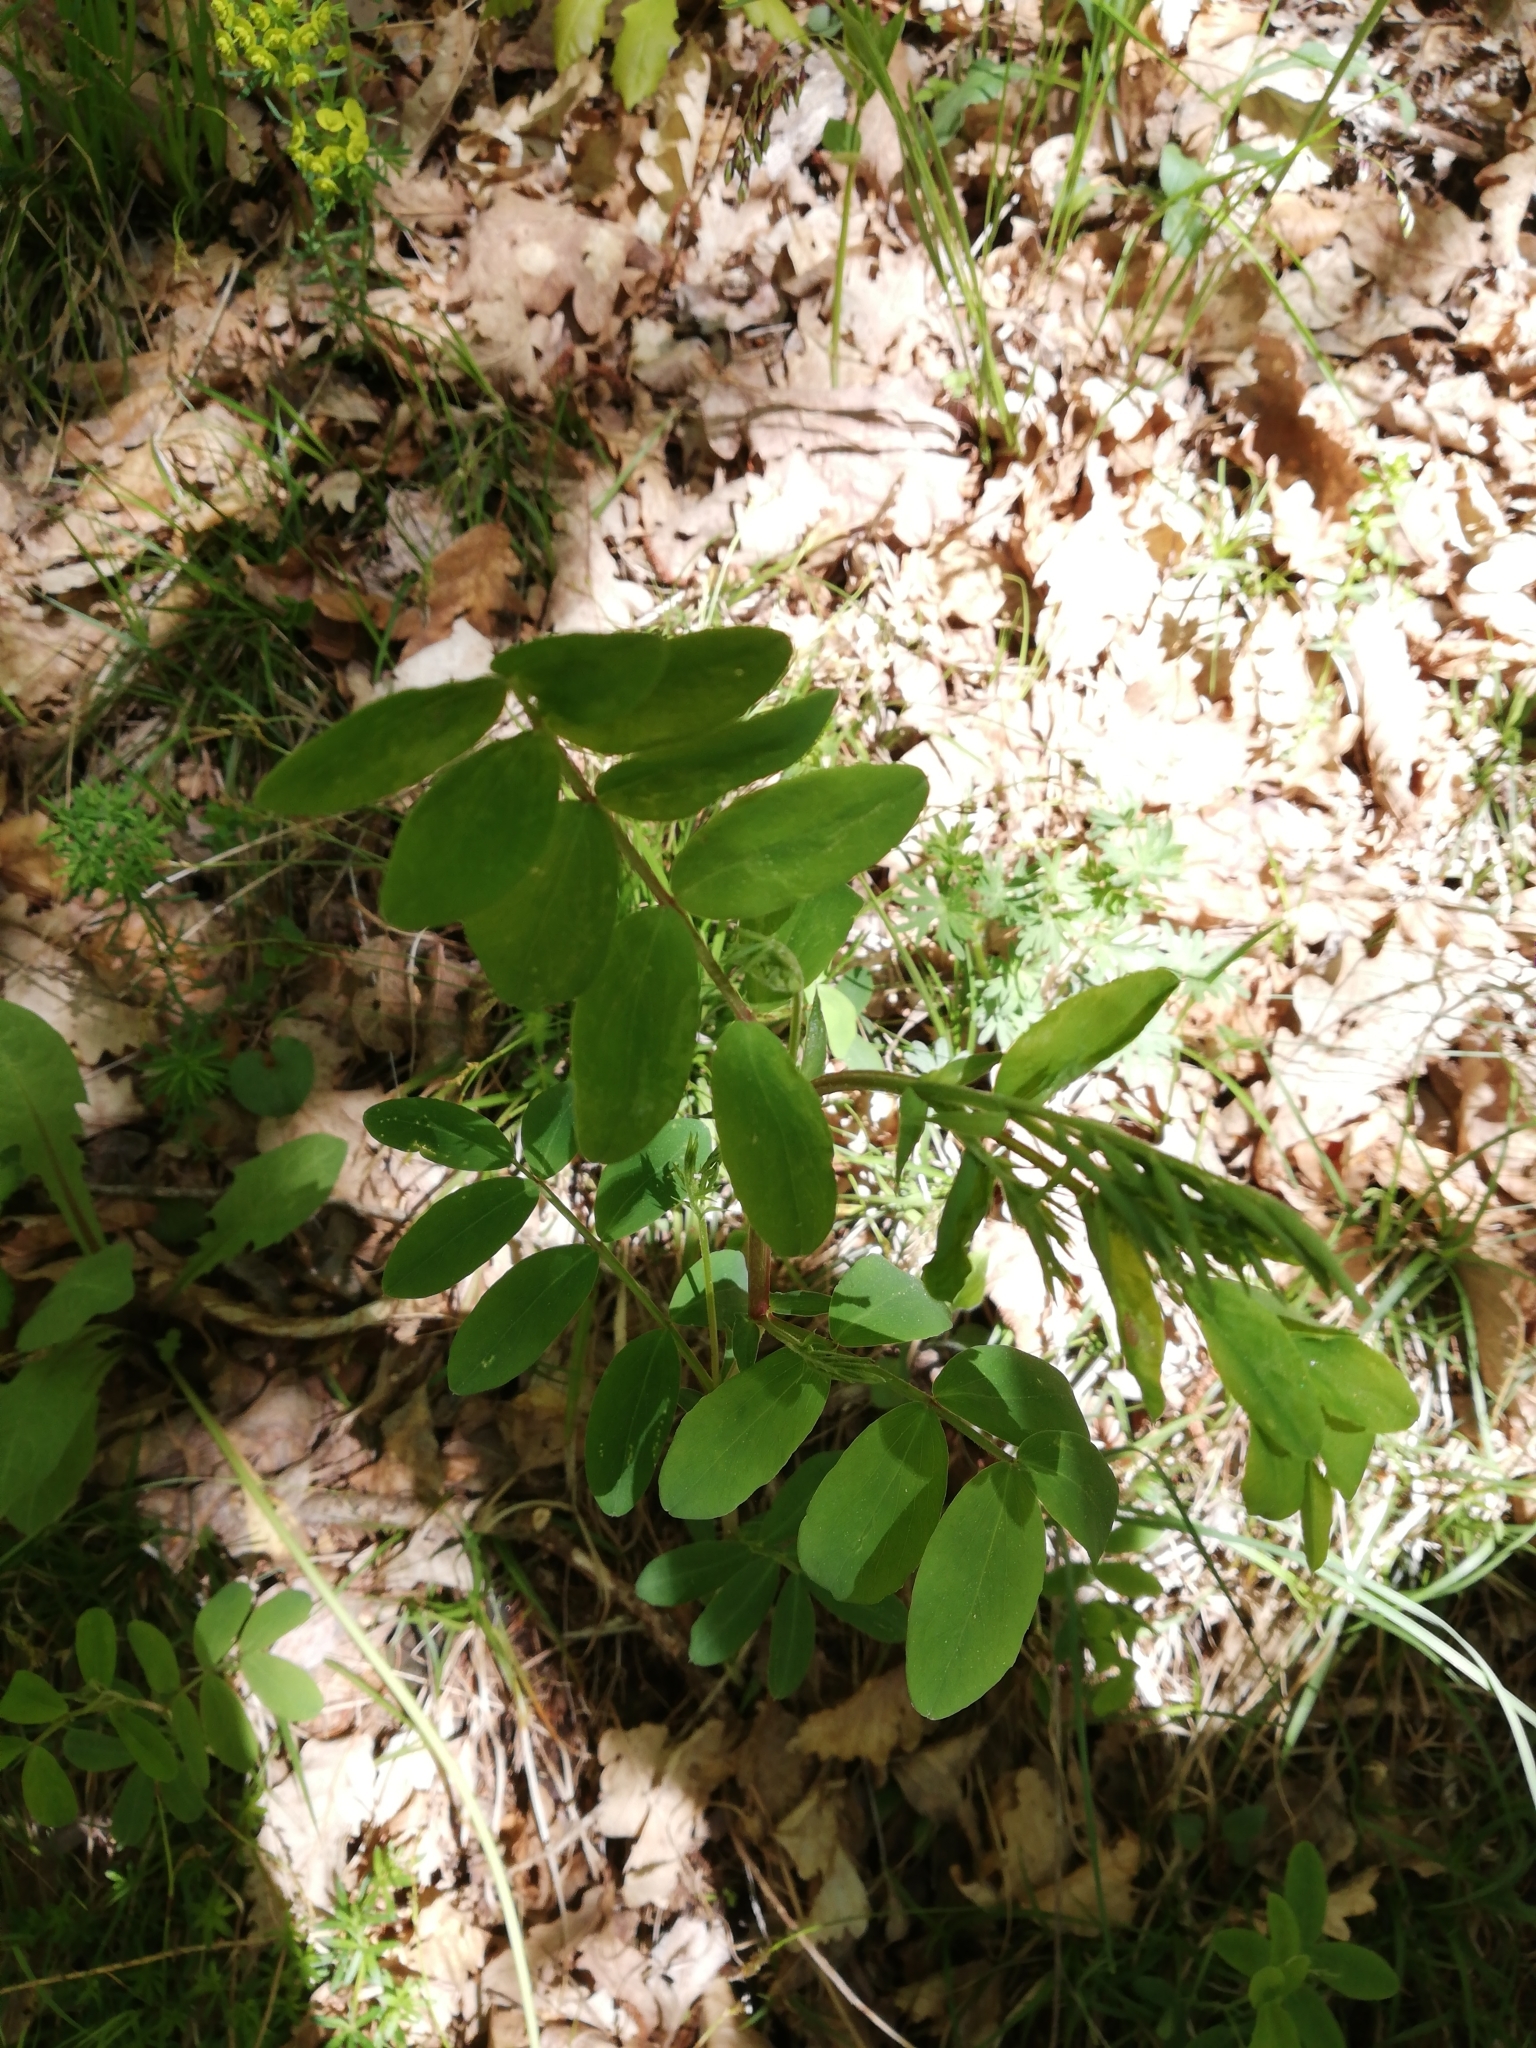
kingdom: Plantae
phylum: Tracheophyta
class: Magnoliopsida
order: Fabales
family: Fabaceae
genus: Robinia
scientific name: Robinia pseudoacacia
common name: Black locust
